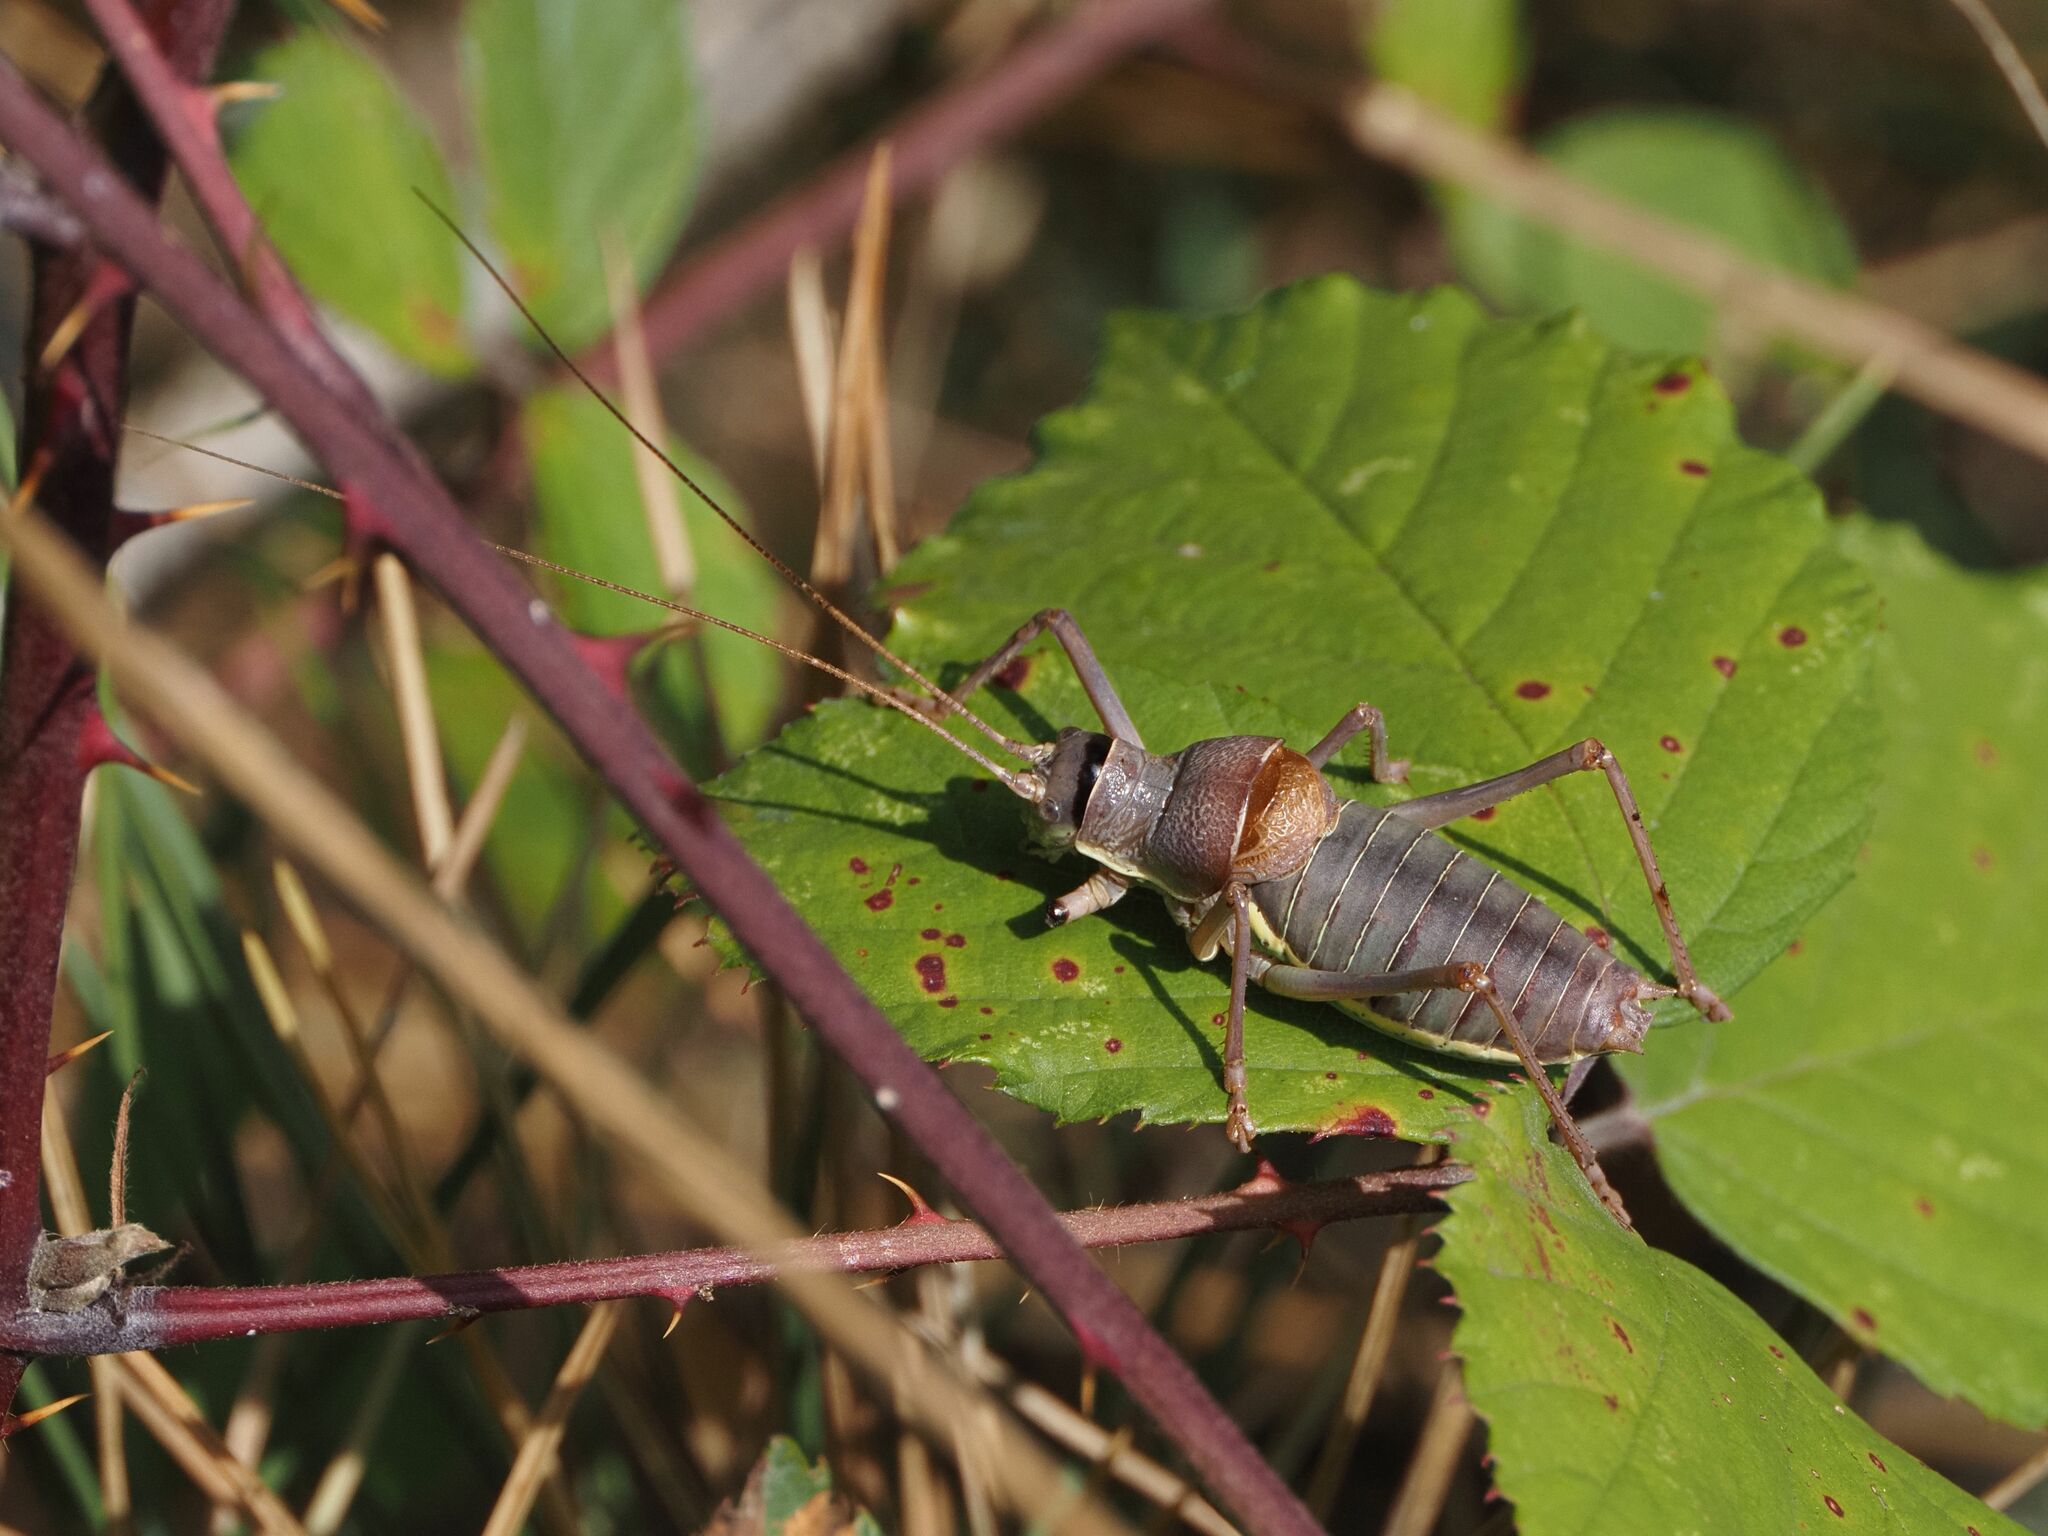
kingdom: Animalia
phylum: Arthropoda
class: Insecta
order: Orthoptera
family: Tettigoniidae
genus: Ephippiger
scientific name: Ephippiger ephippiger
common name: Eastern saddle bush-cricket
